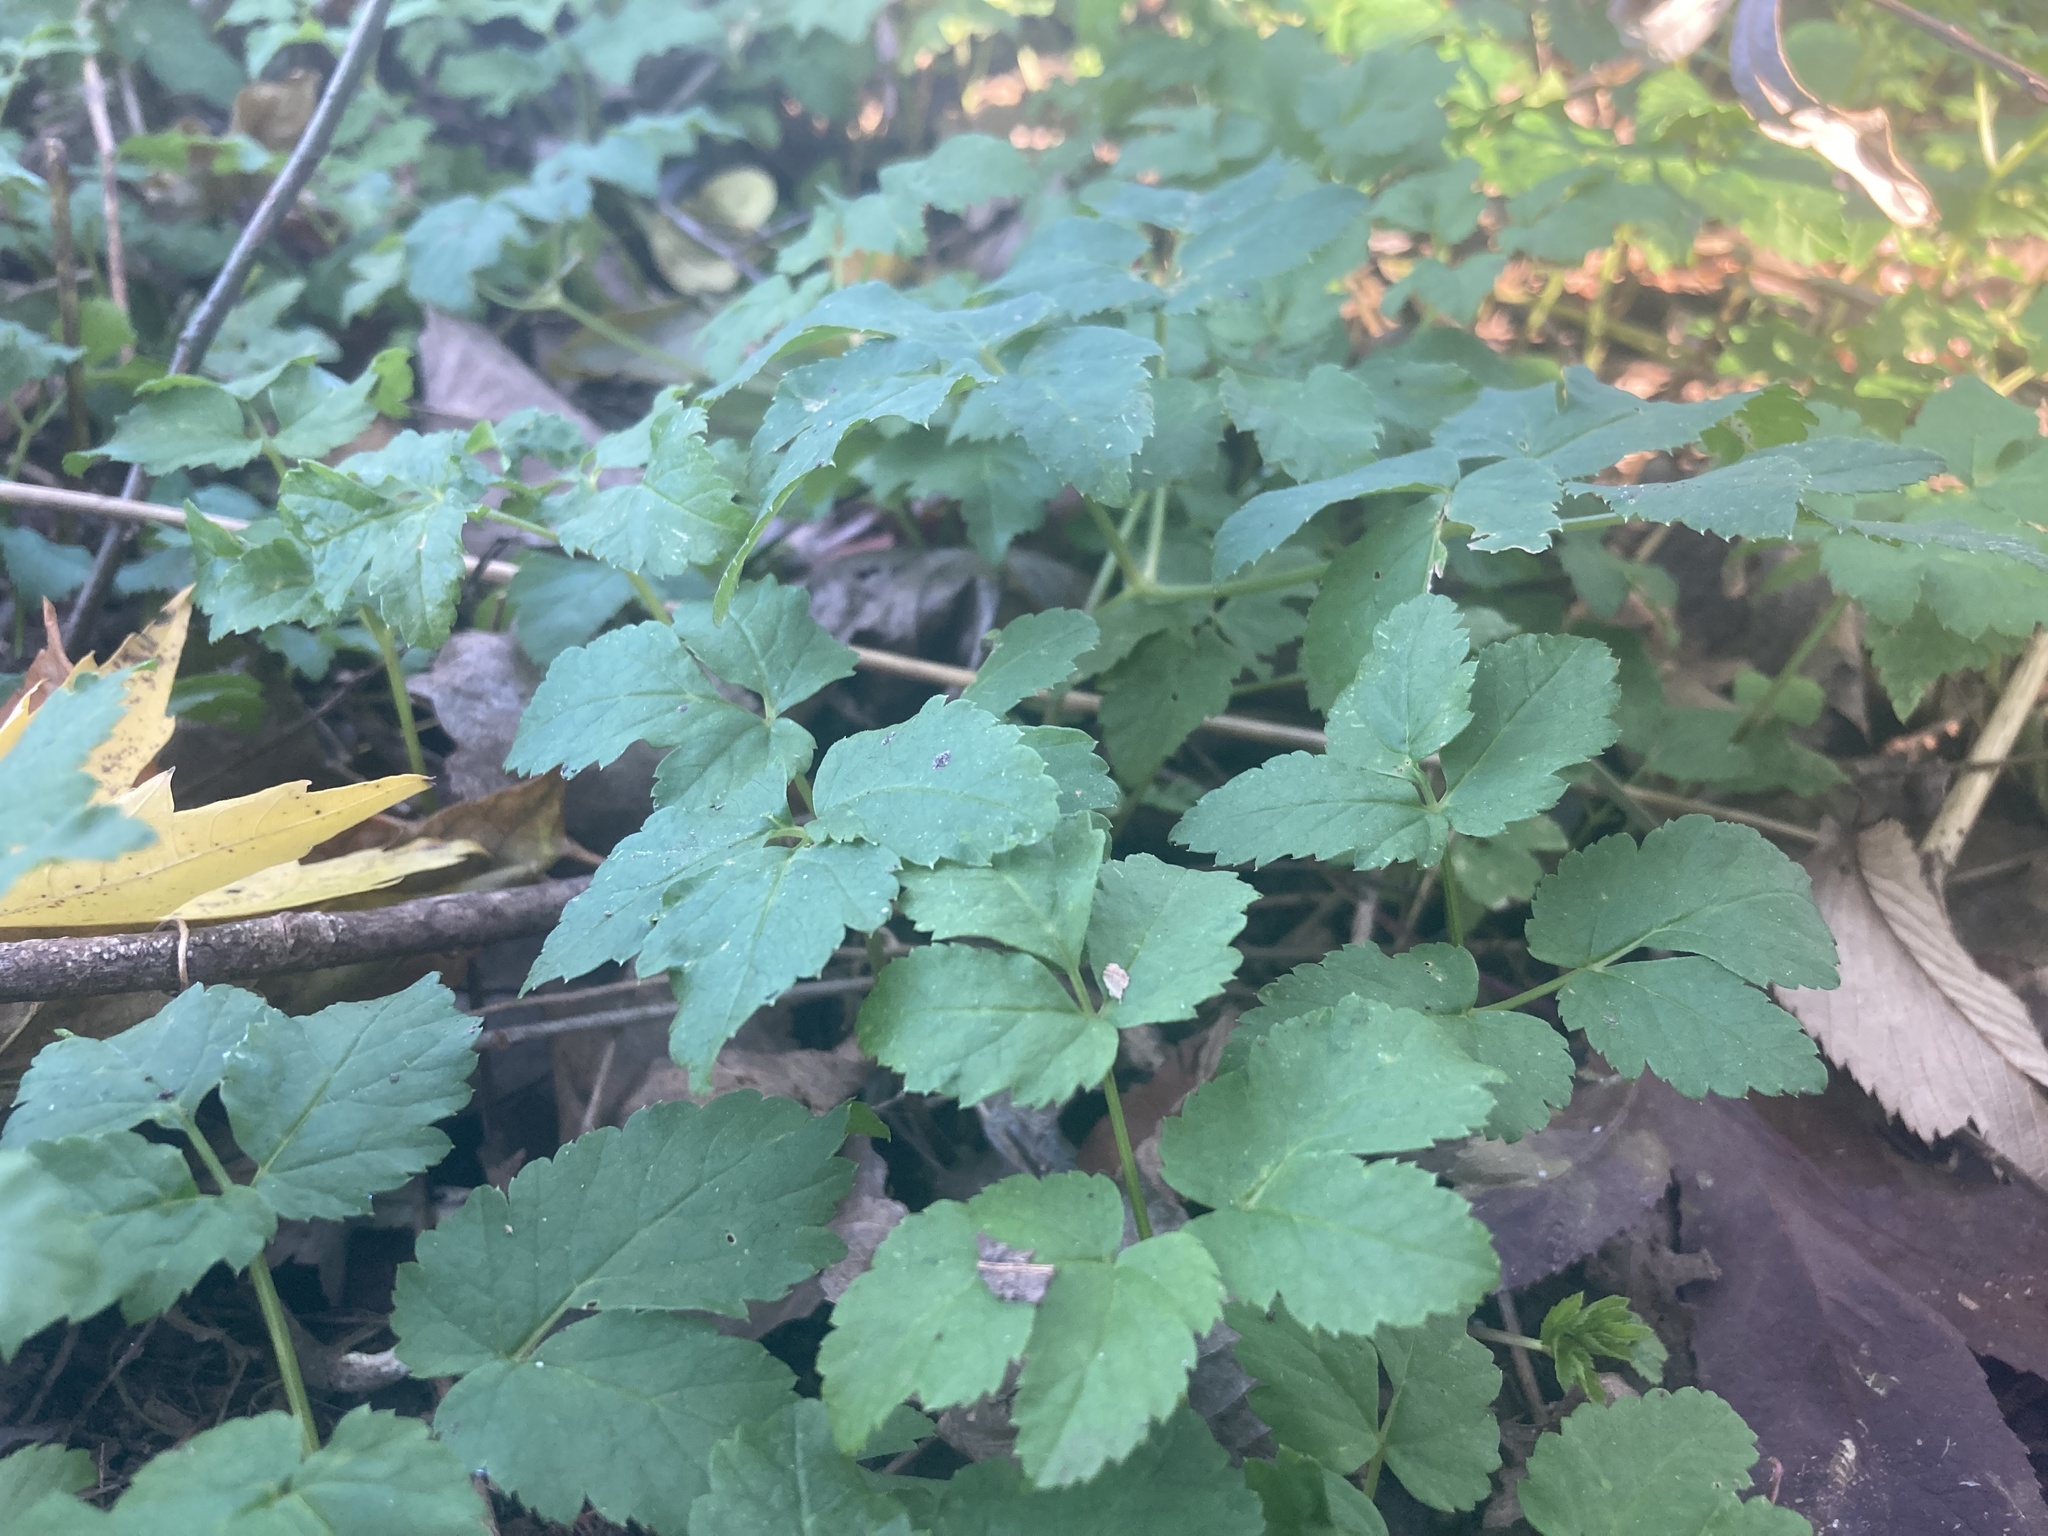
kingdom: Plantae
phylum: Tracheophyta
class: Magnoliopsida
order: Apiales
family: Apiaceae
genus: Aegopodium
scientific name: Aegopodium podagraria
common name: Ground-elder
